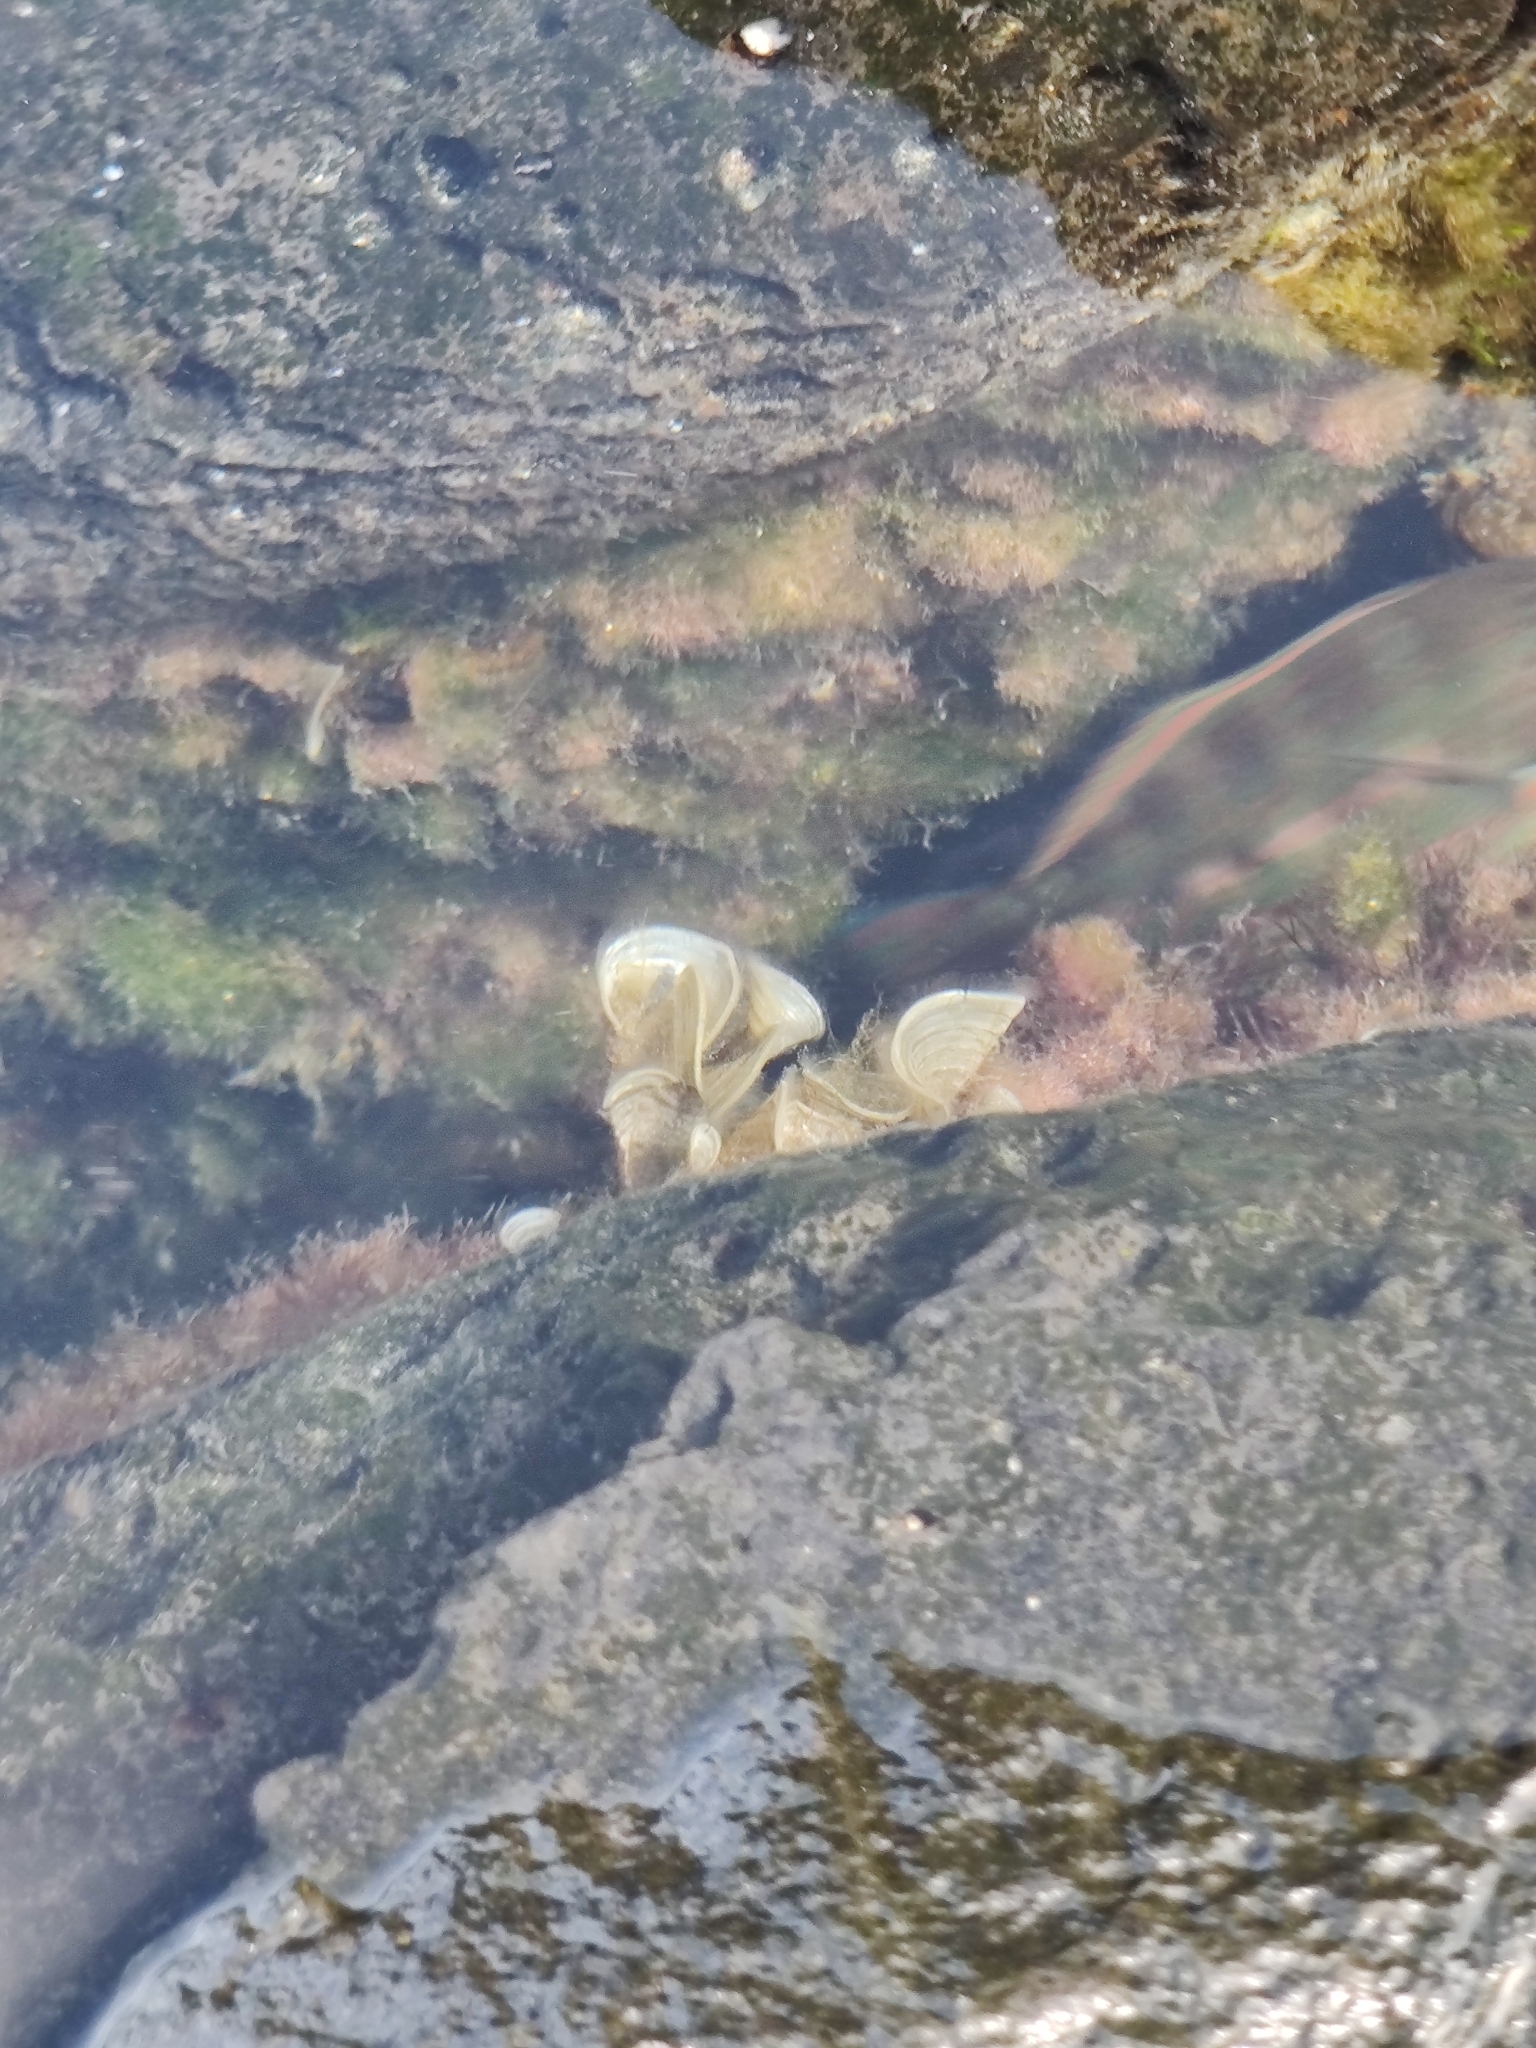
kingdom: Animalia
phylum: Chordata
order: Perciformes
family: Labridae
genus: Thalassoma
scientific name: Thalassoma purpureum
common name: Parrotfish
